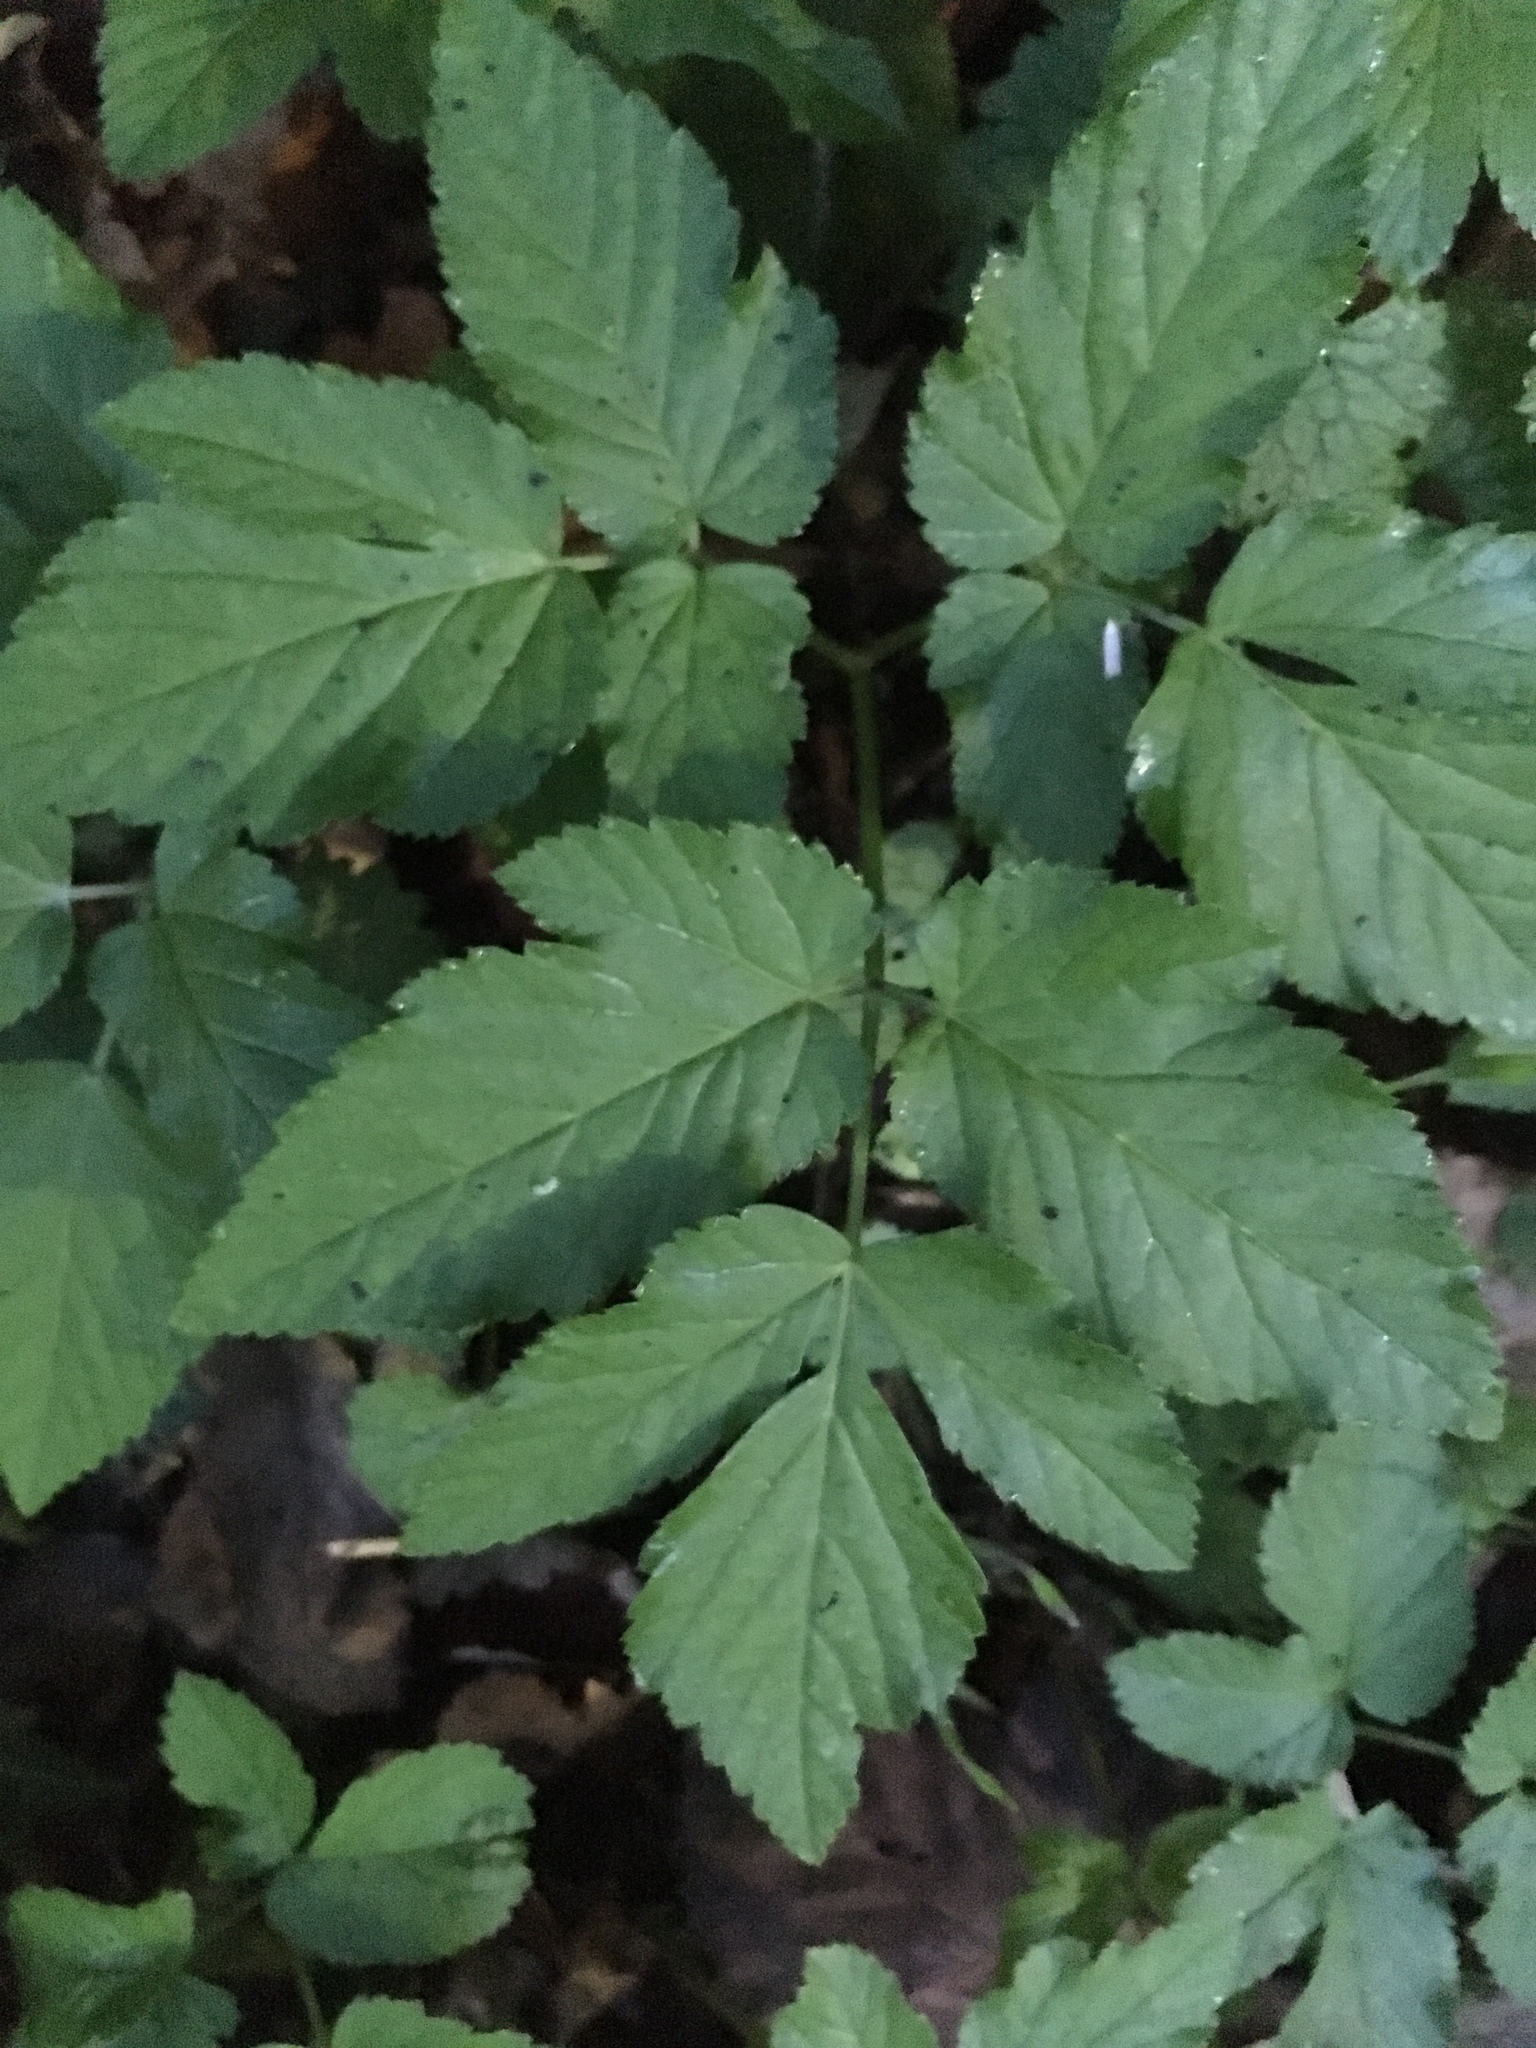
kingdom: Plantae
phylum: Tracheophyta
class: Magnoliopsida
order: Apiales
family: Apiaceae
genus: Aegopodium
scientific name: Aegopodium podagraria
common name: Ground-elder
